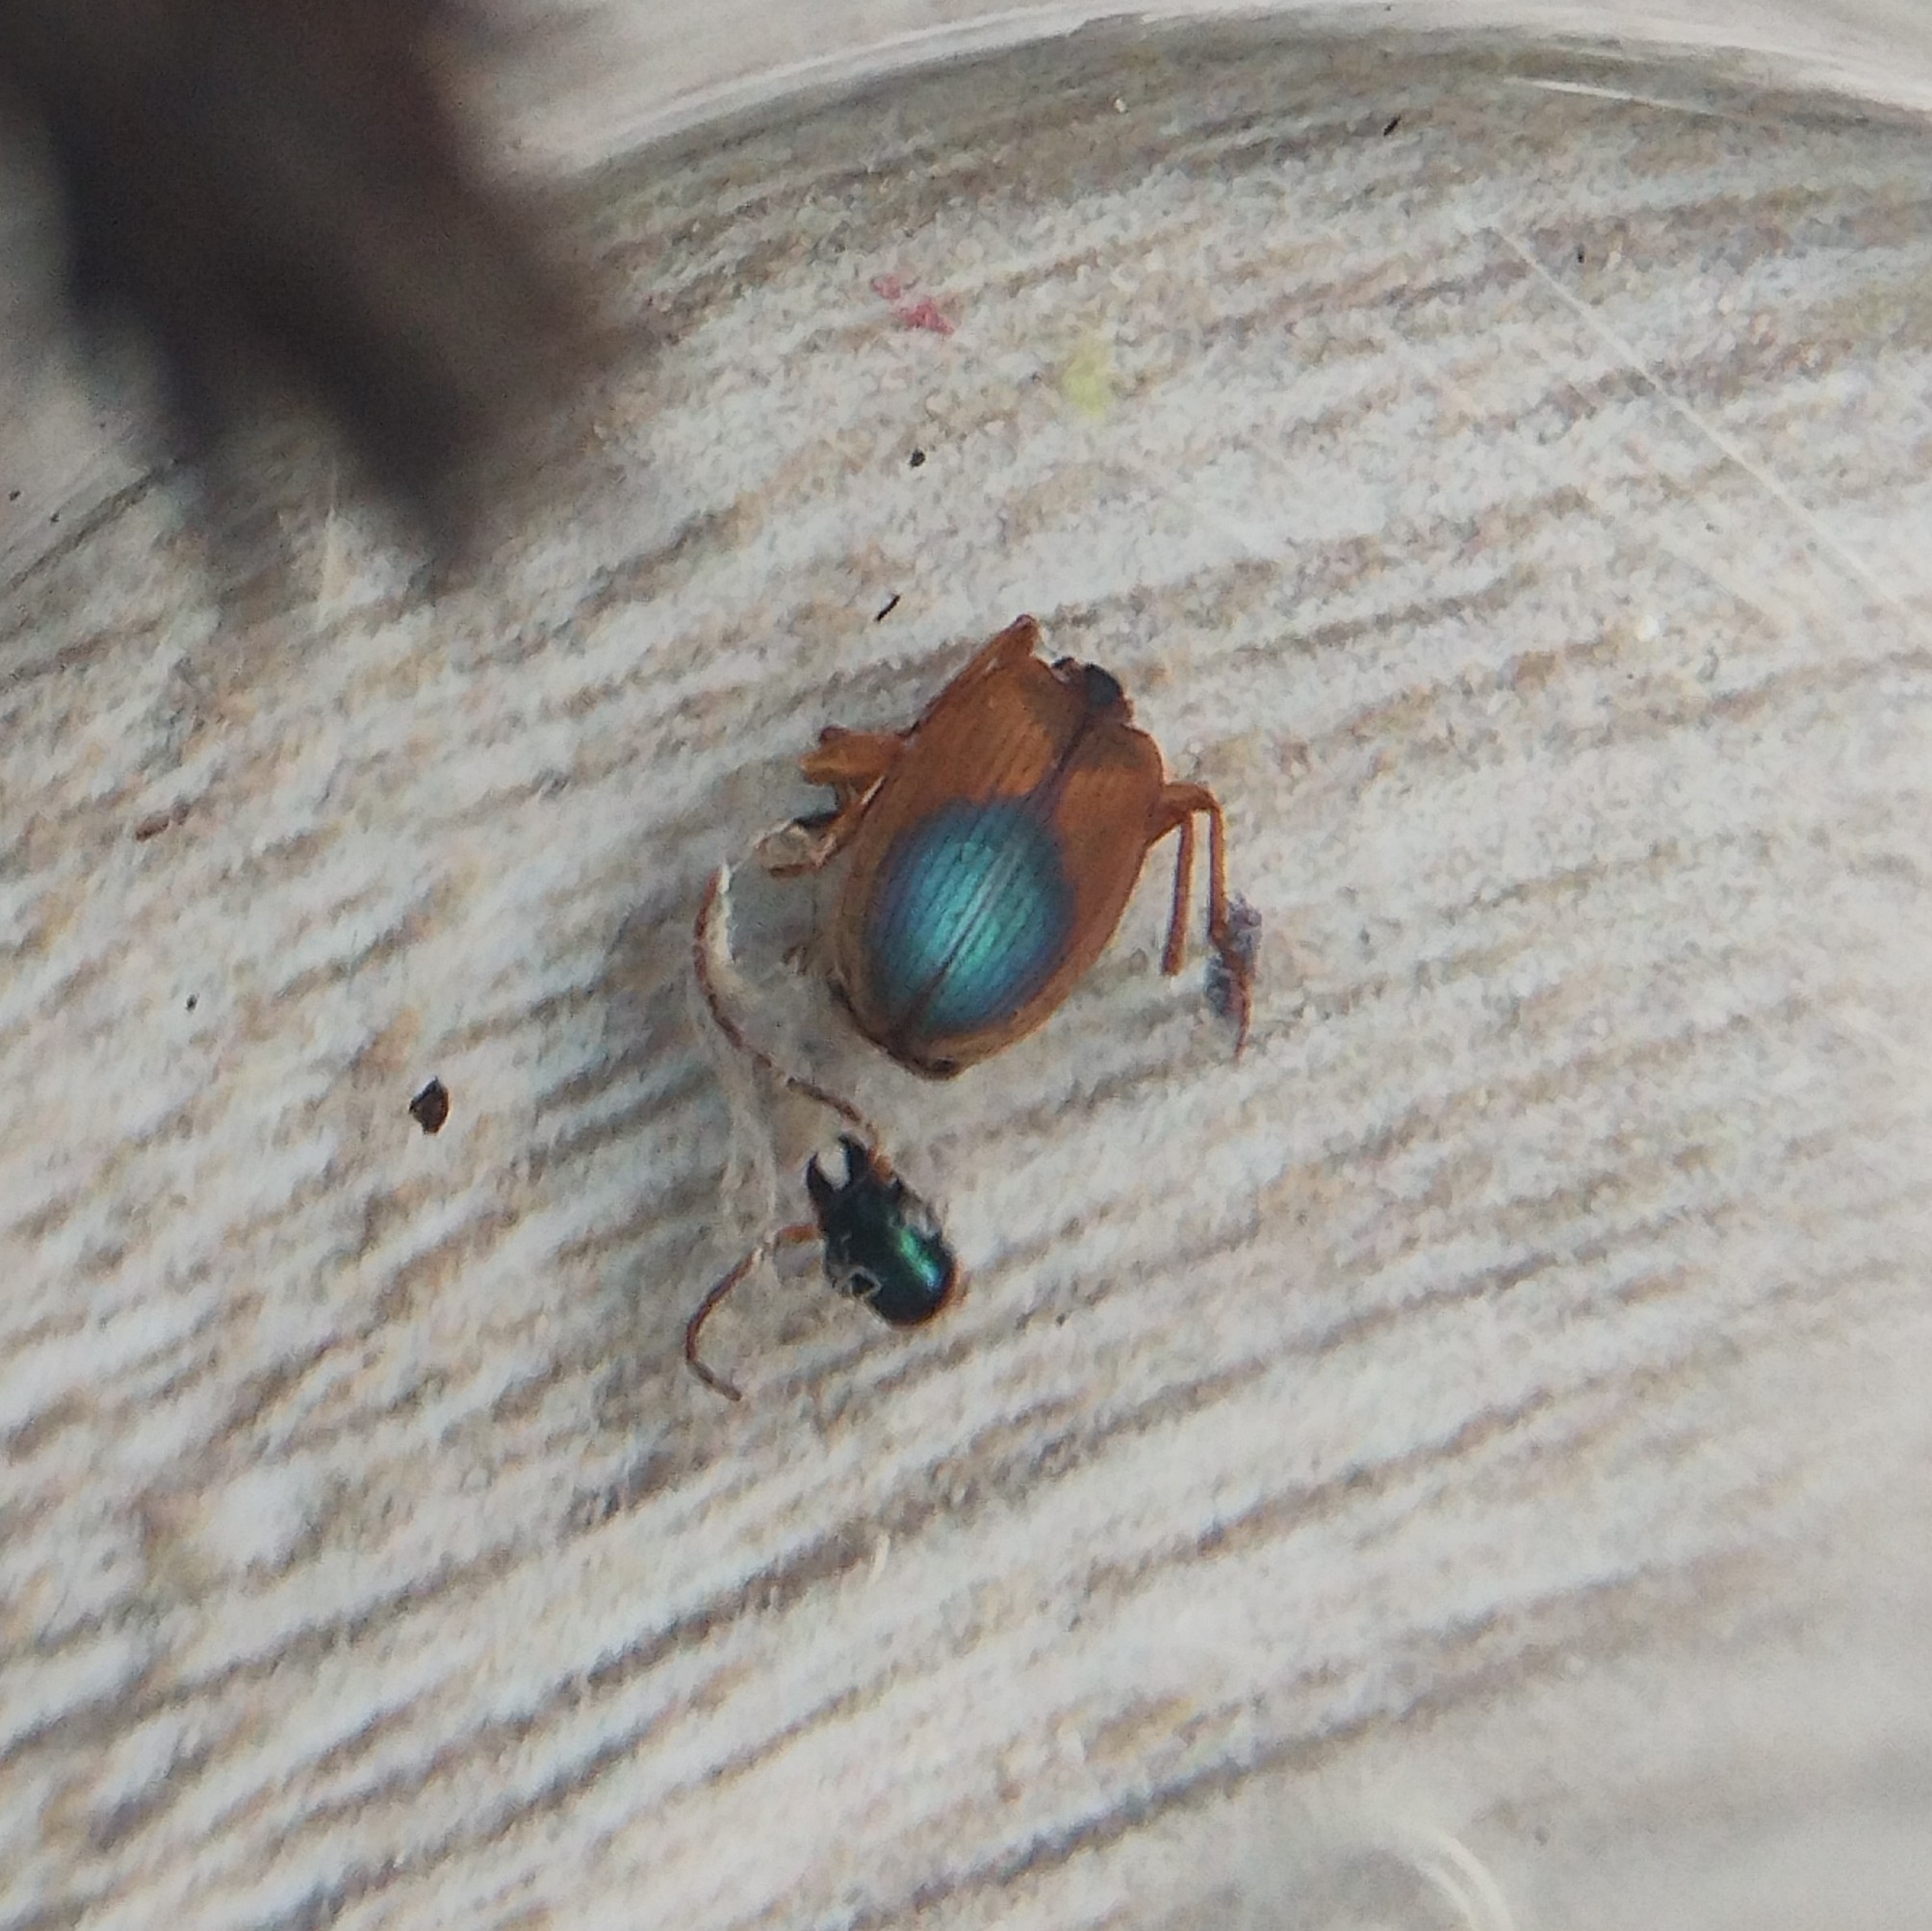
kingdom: Animalia
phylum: Arthropoda
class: Insecta
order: Coleoptera
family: Carabidae
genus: Anchomenus
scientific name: Anchomenus dorsalis
